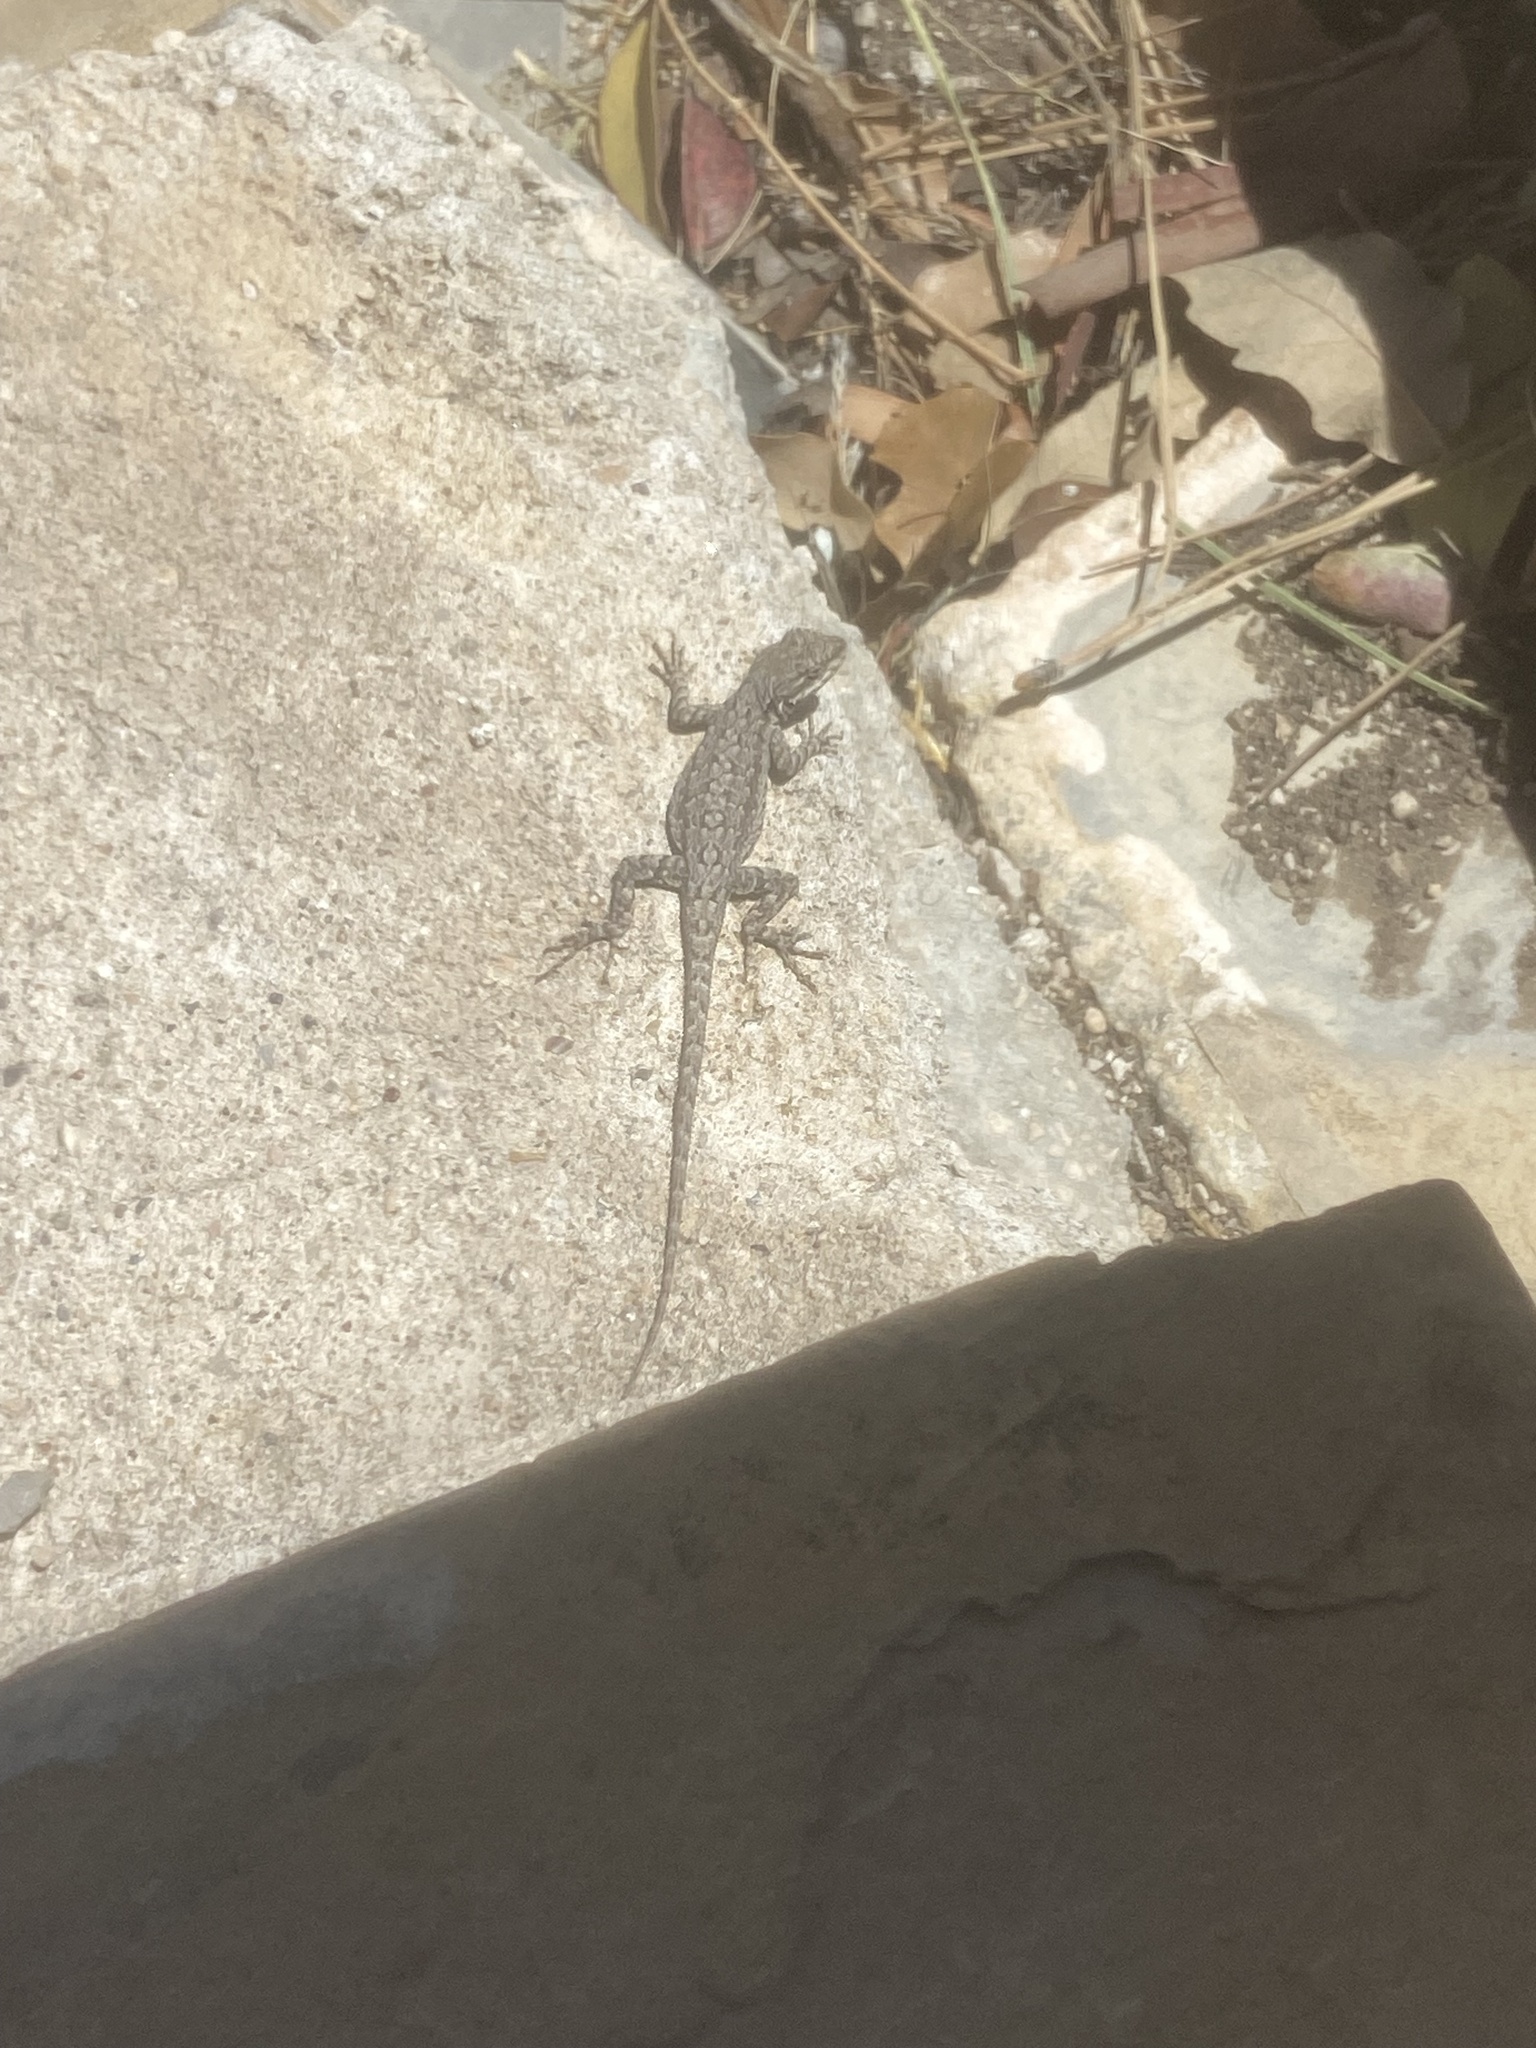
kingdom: Animalia
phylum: Chordata
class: Squamata
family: Phrynosomatidae
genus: Urosaurus
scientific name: Urosaurus ornatus
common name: Ornate tree lizard
